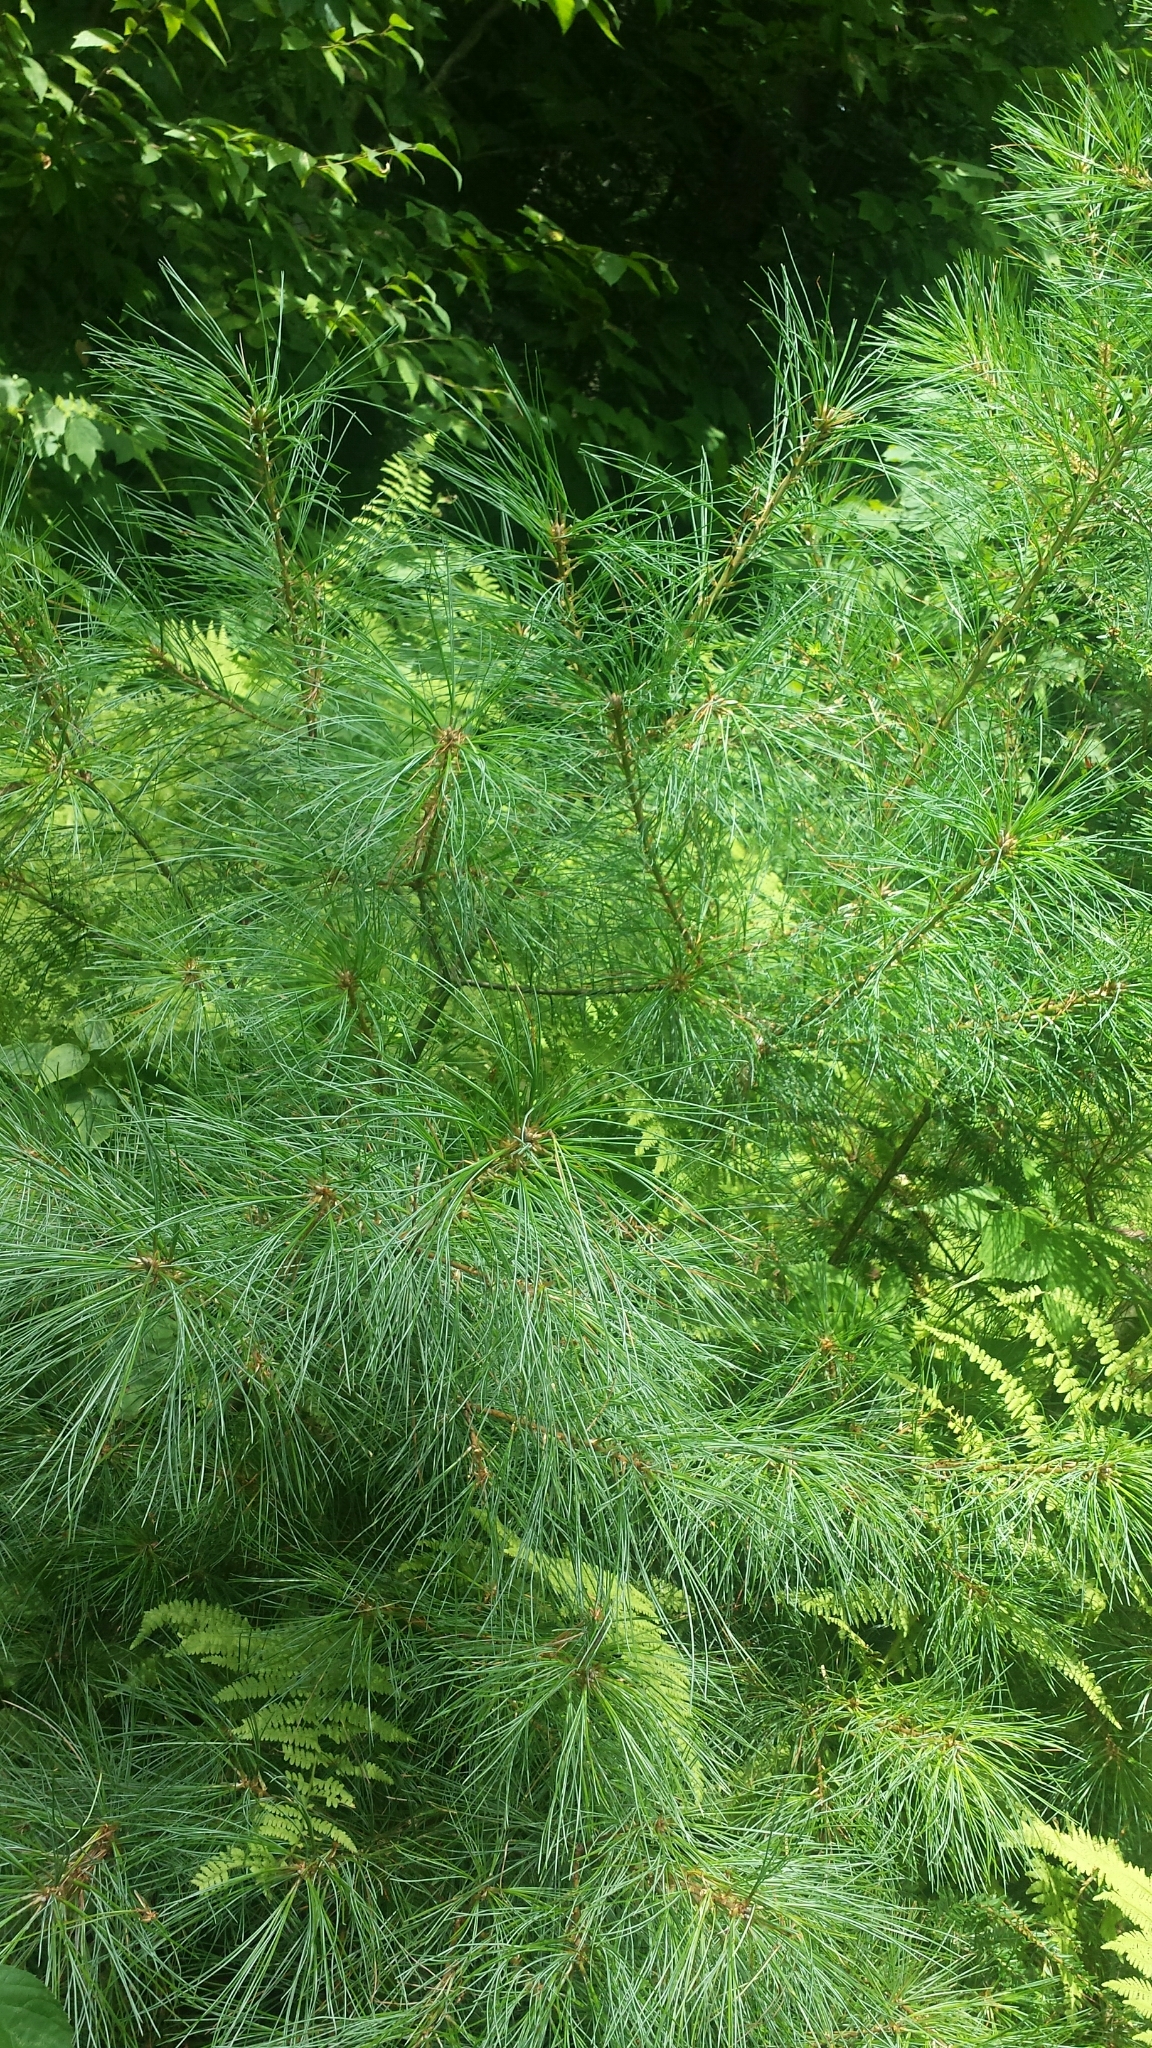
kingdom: Plantae
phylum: Tracheophyta
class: Pinopsida
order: Pinales
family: Pinaceae
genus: Pinus
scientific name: Pinus strobus
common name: Weymouth pine
